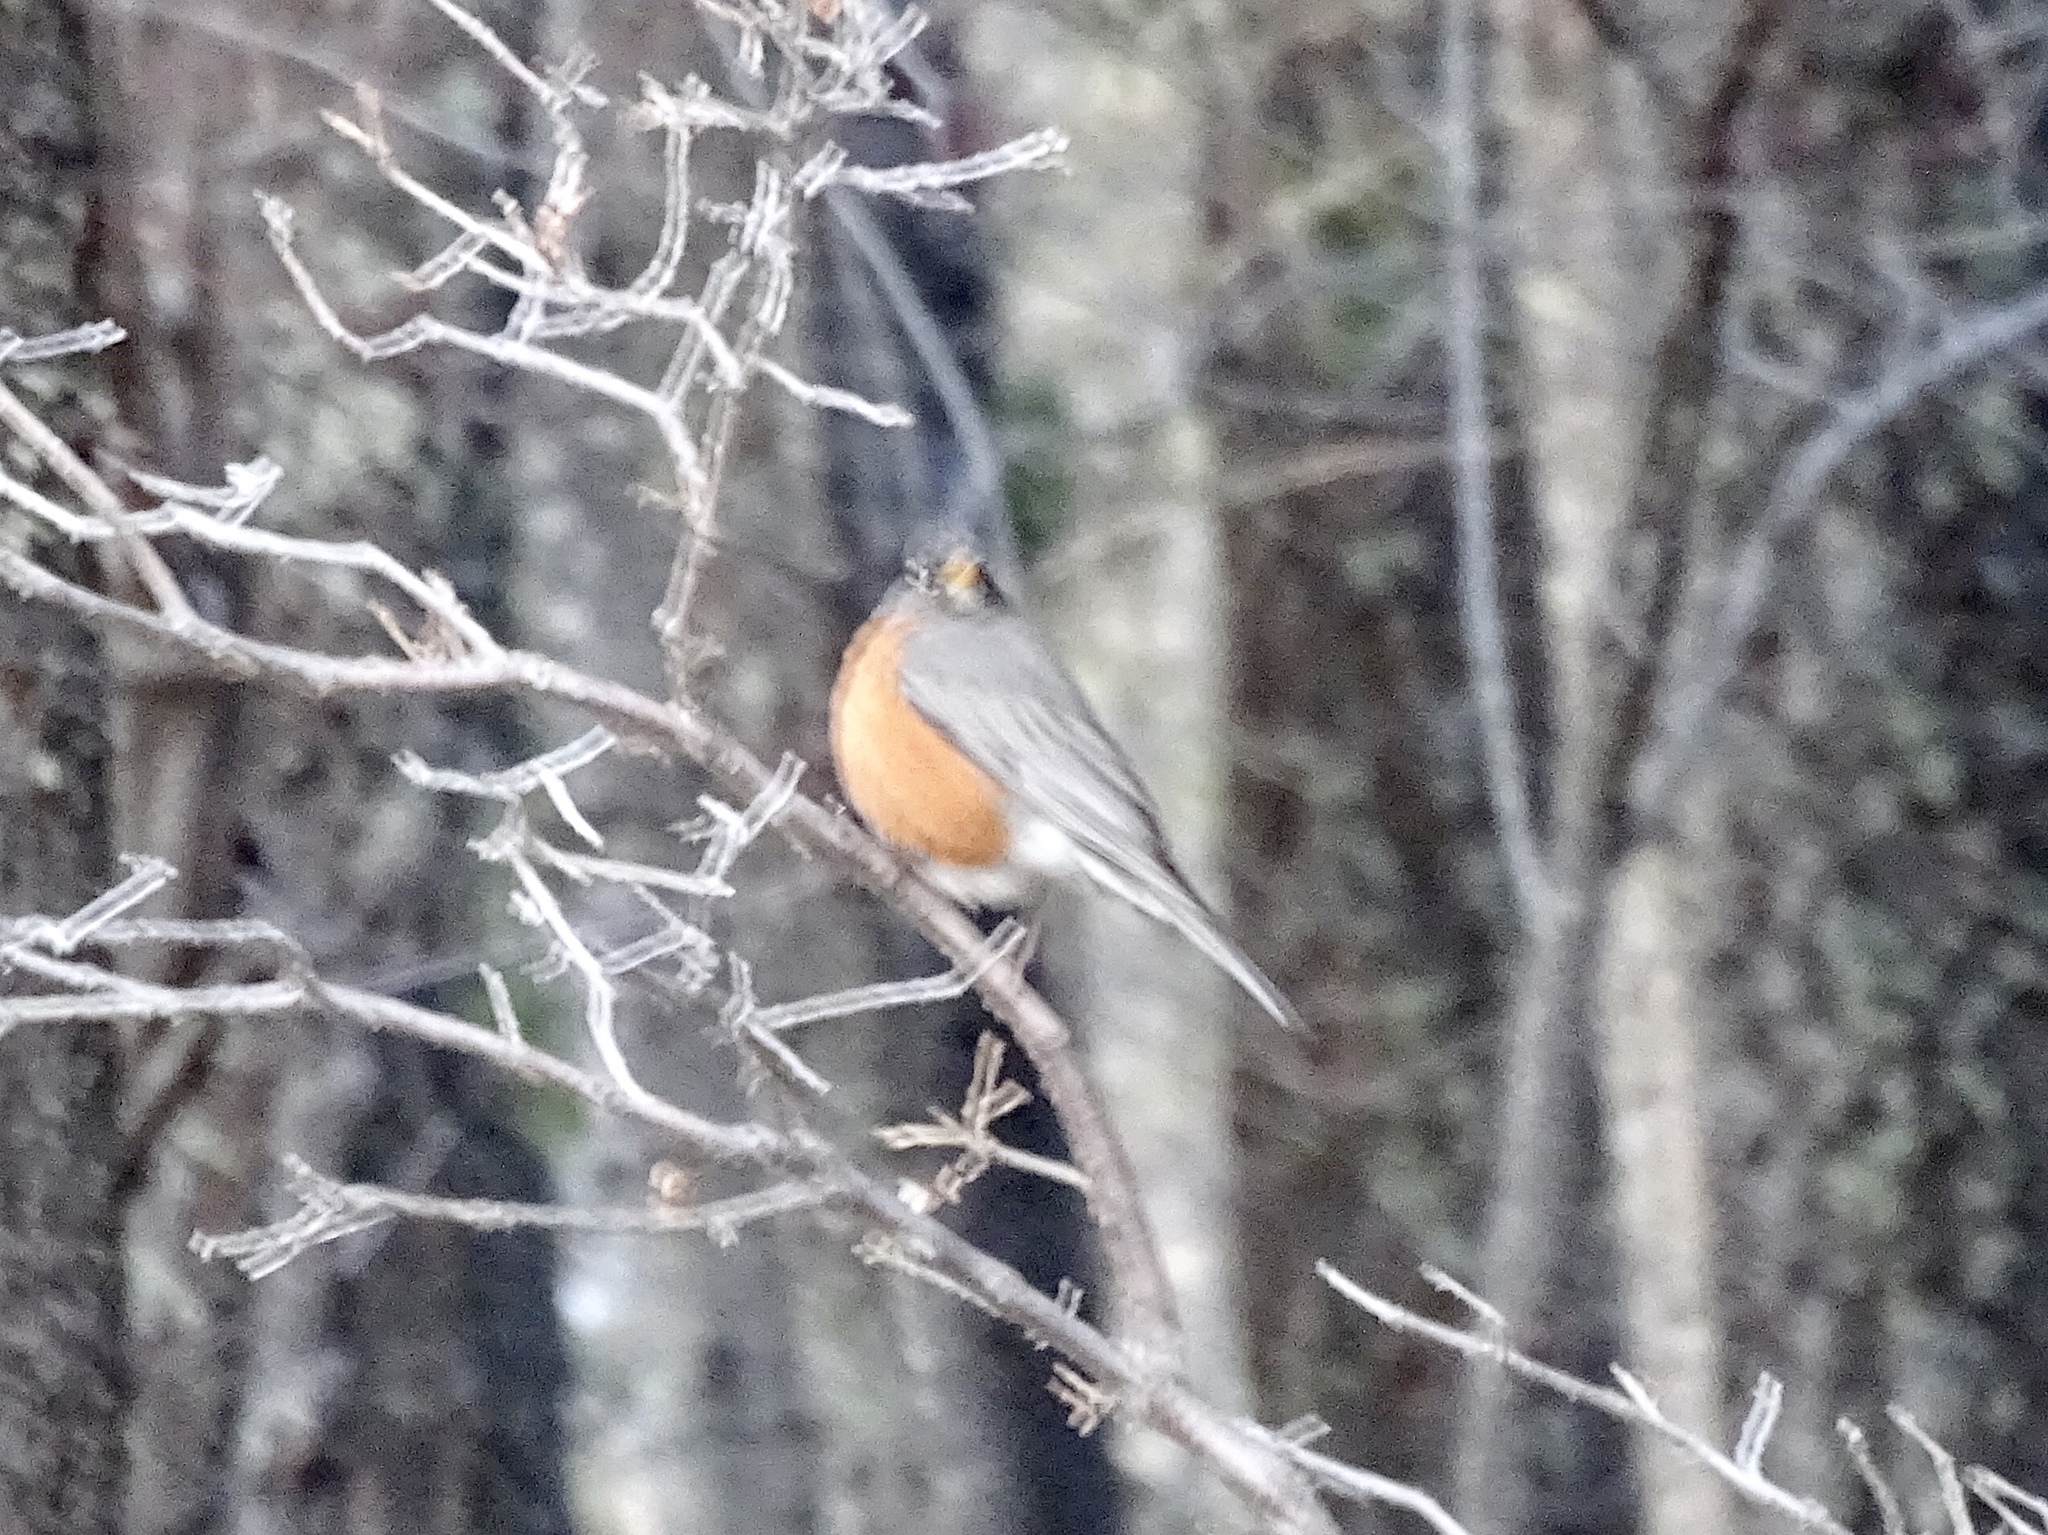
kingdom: Animalia
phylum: Chordata
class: Aves
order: Passeriformes
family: Turdidae
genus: Turdus
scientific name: Turdus migratorius
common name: American robin
